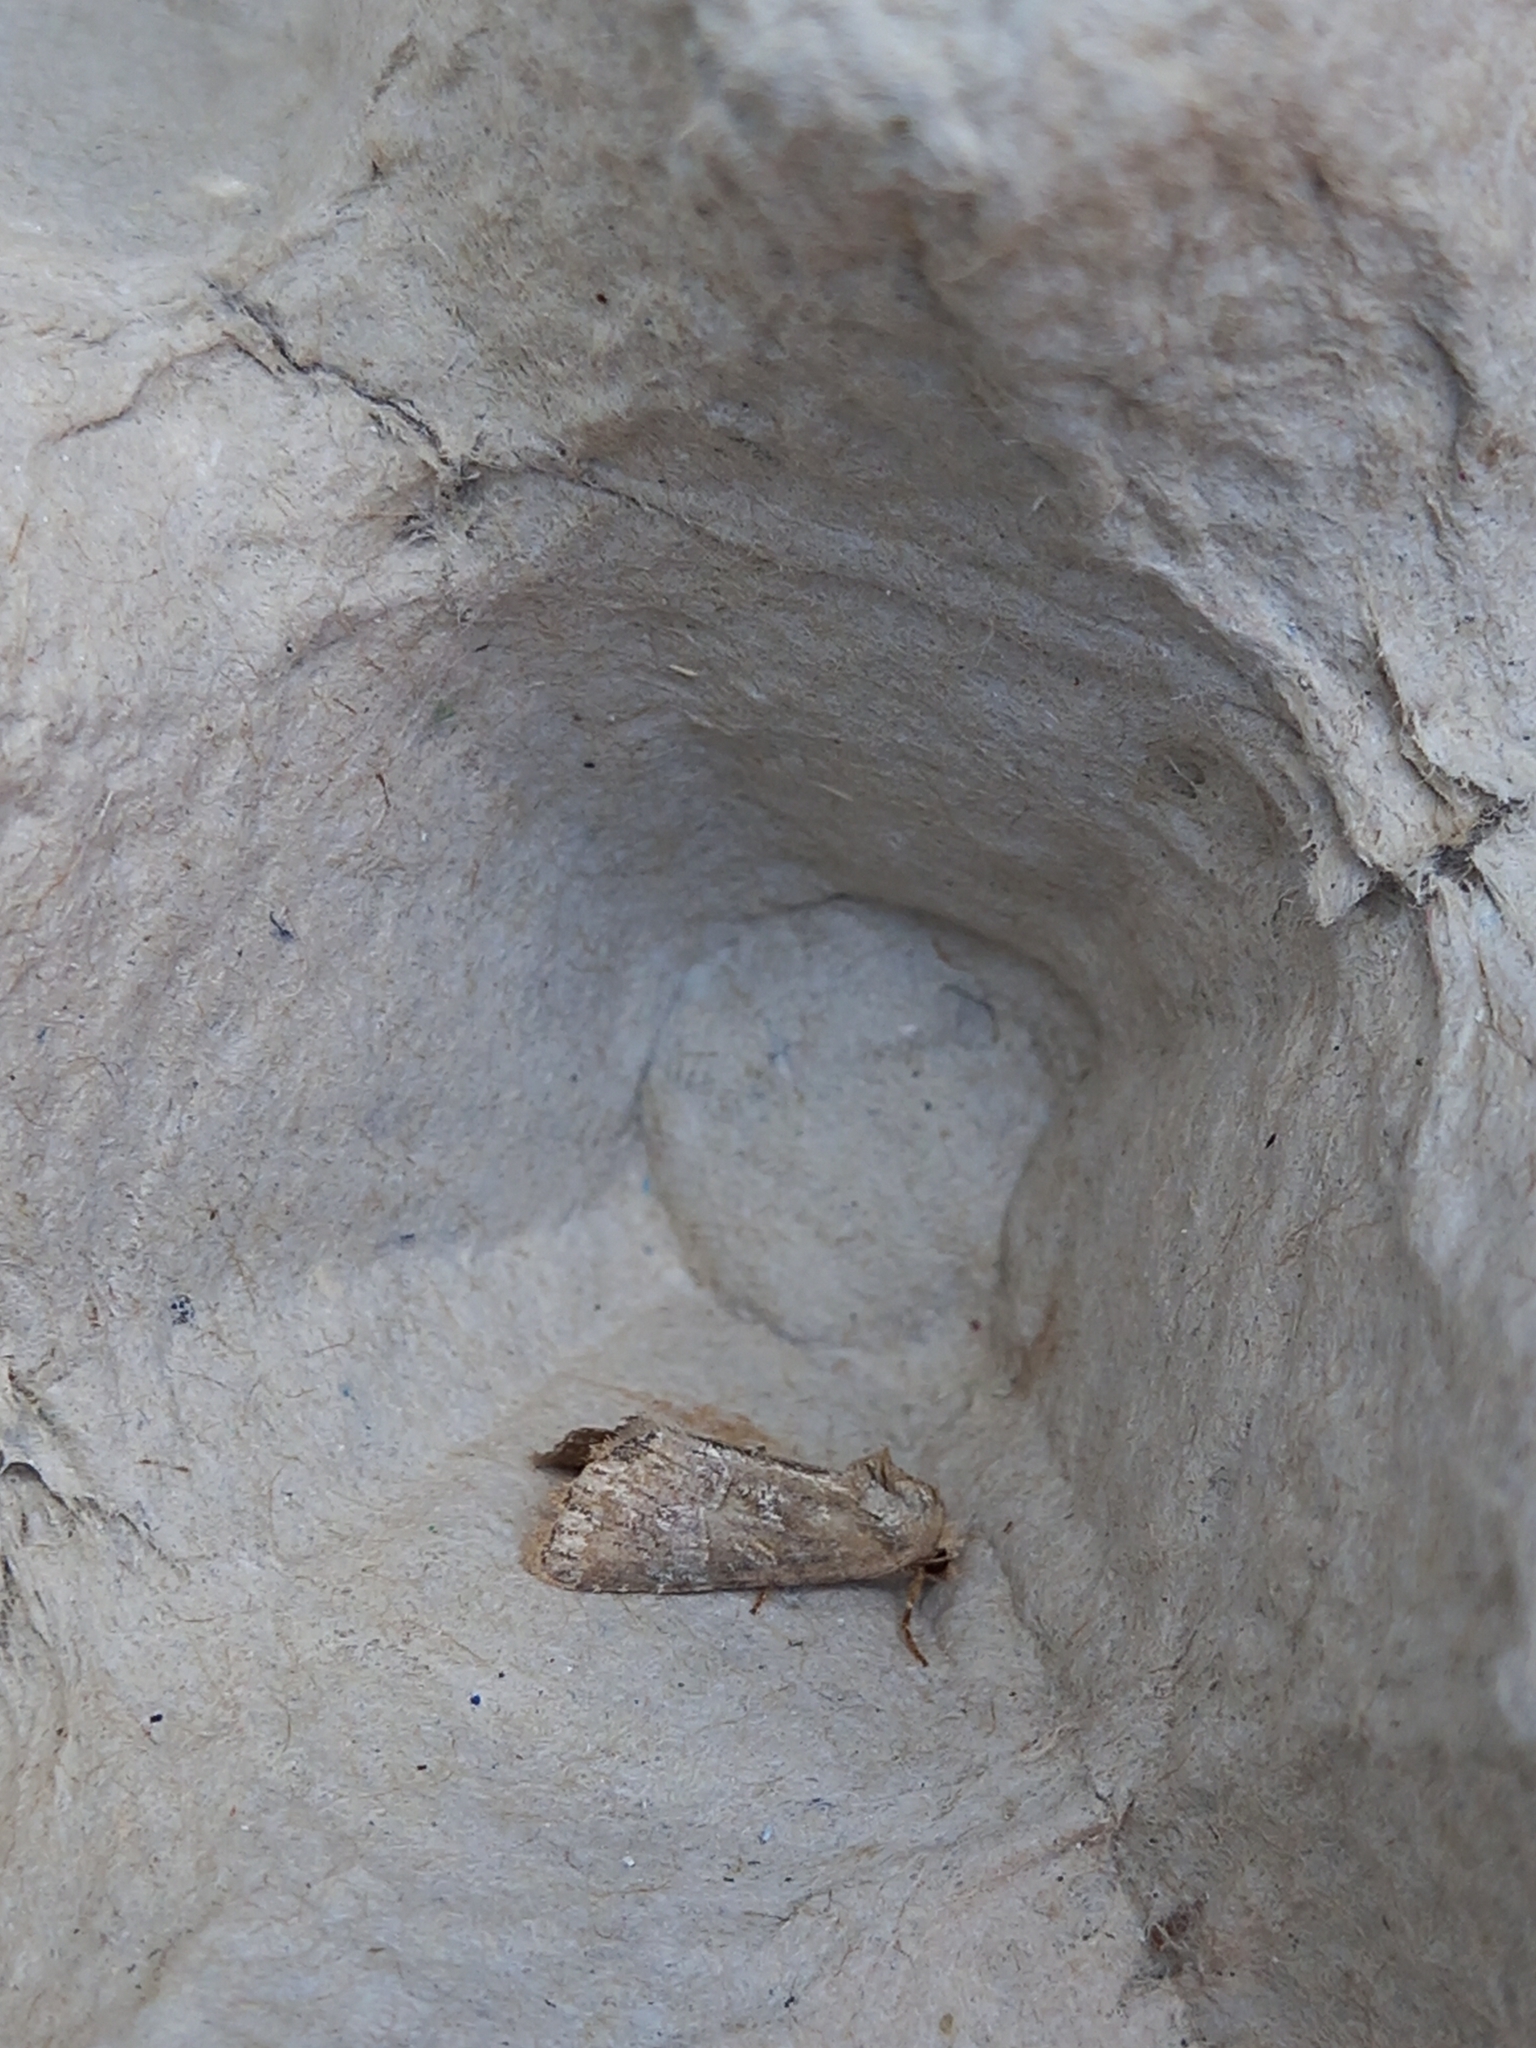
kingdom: Animalia
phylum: Arthropoda
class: Insecta
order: Lepidoptera
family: Noctuidae
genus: Mesoligia
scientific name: Mesoligia furuncula
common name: Cloaked minor
